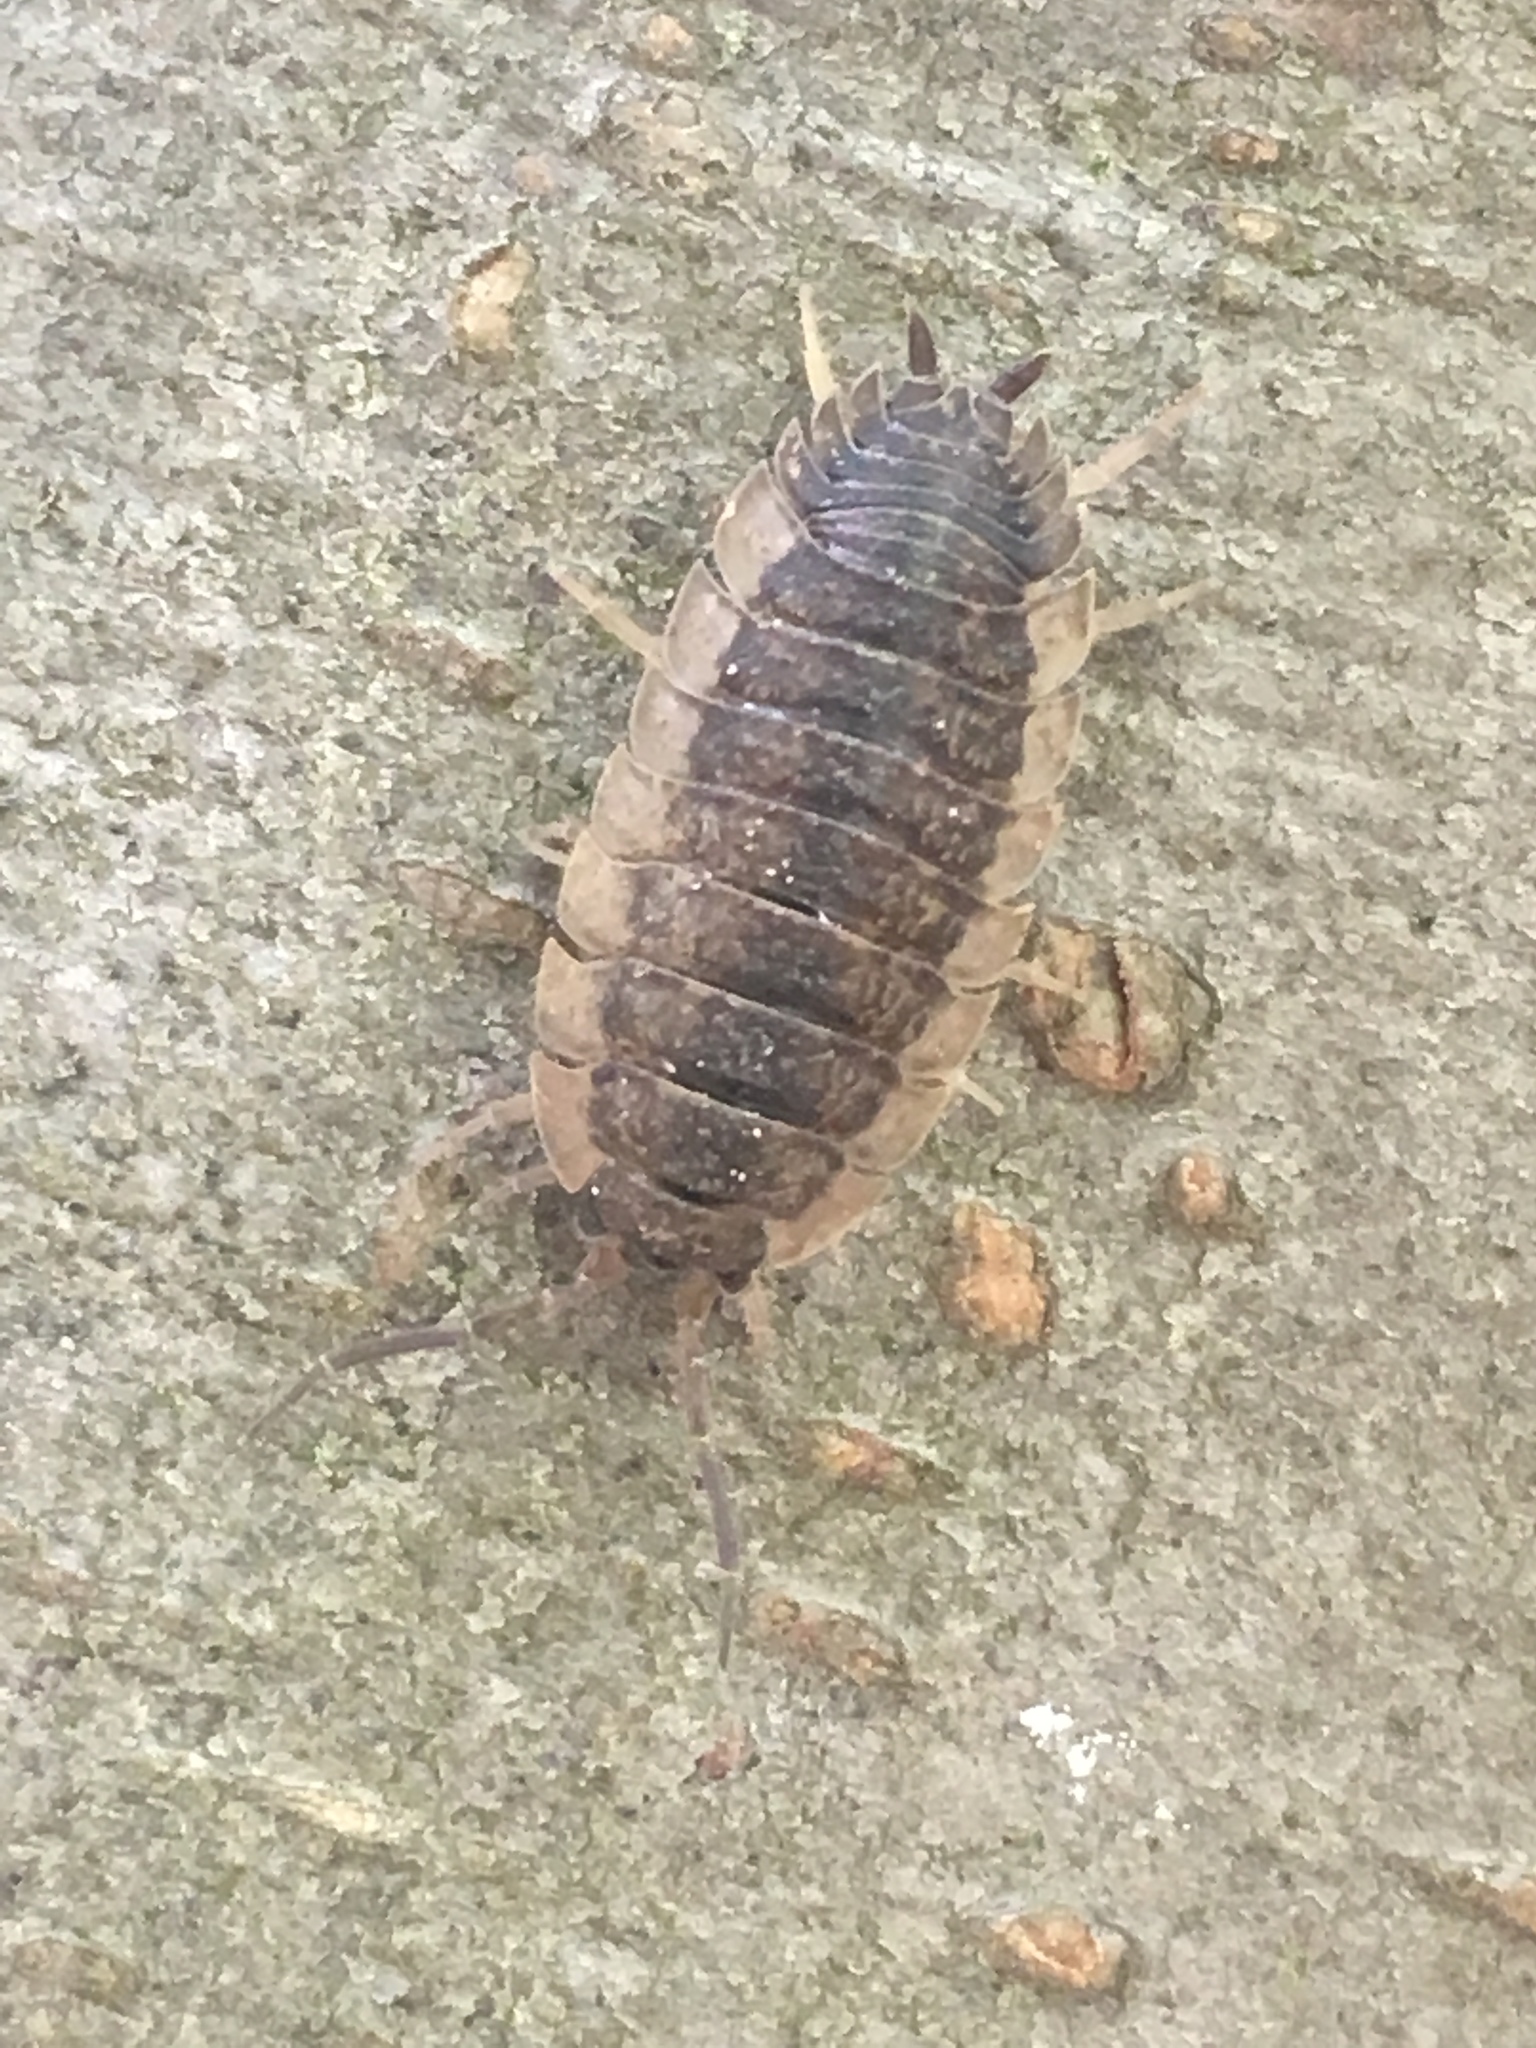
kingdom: Animalia
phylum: Arthropoda
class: Malacostraca
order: Isopoda
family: Porcellionidae
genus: Porcellio
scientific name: Porcellio scaber
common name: Common rough woodlouse
